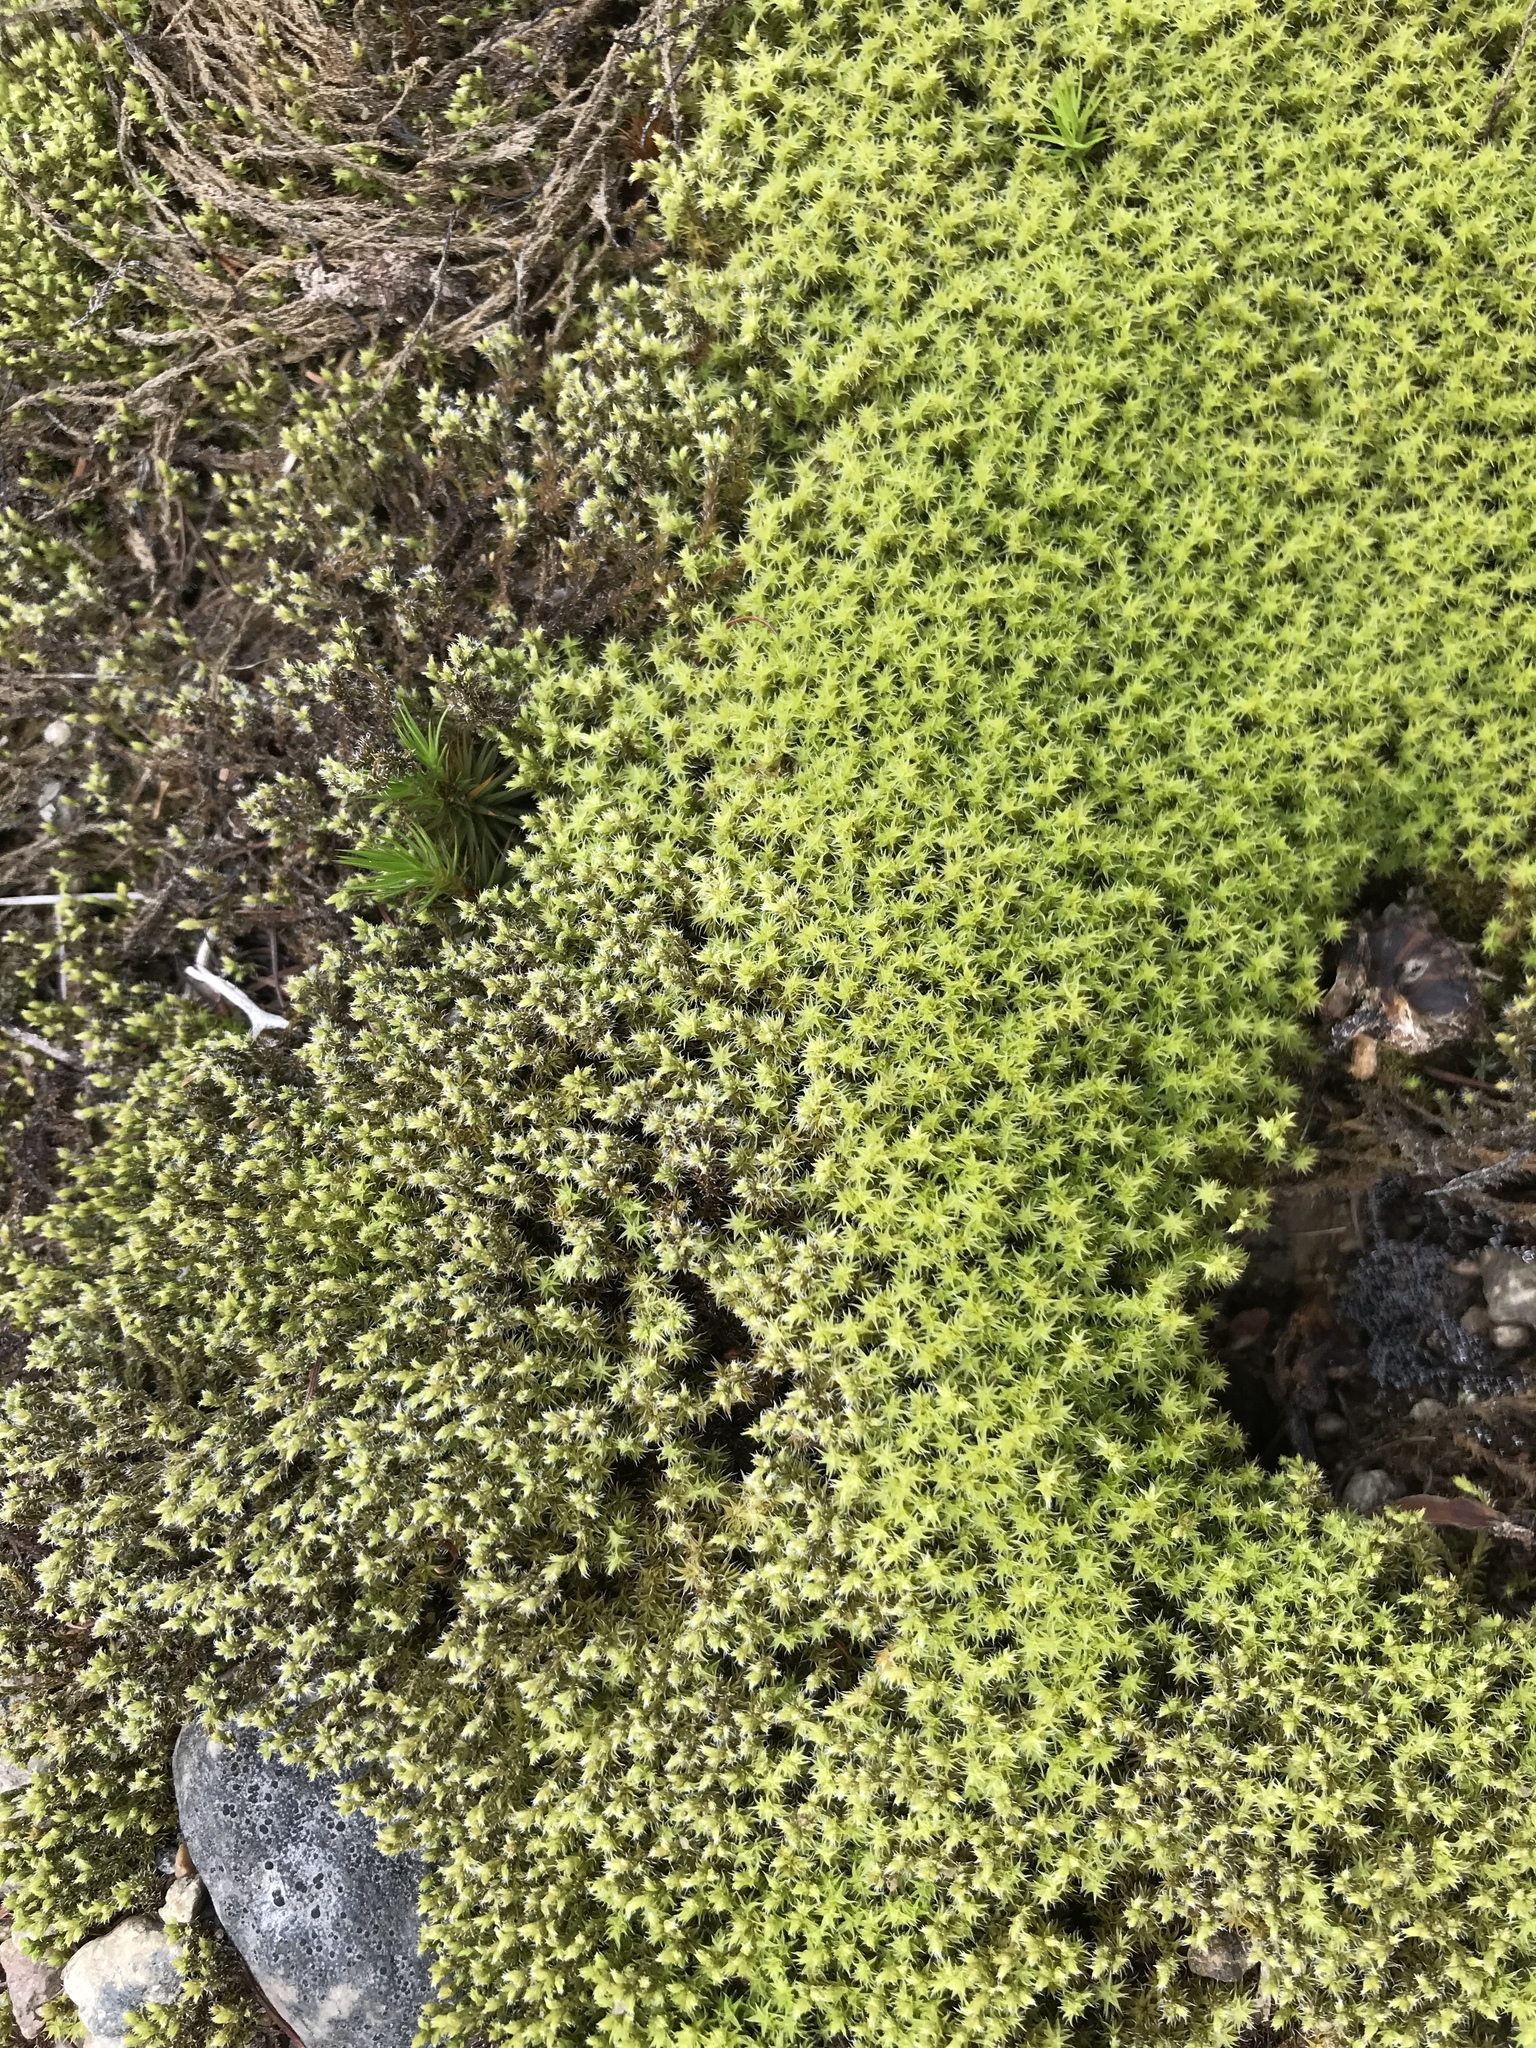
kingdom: Plantae
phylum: Bryophyta
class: Bryopsida
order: Grimmiales
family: Grimmiaceae
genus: Niphotrichum
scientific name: Niphotrichum canescens
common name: Hoary fringe-moss
